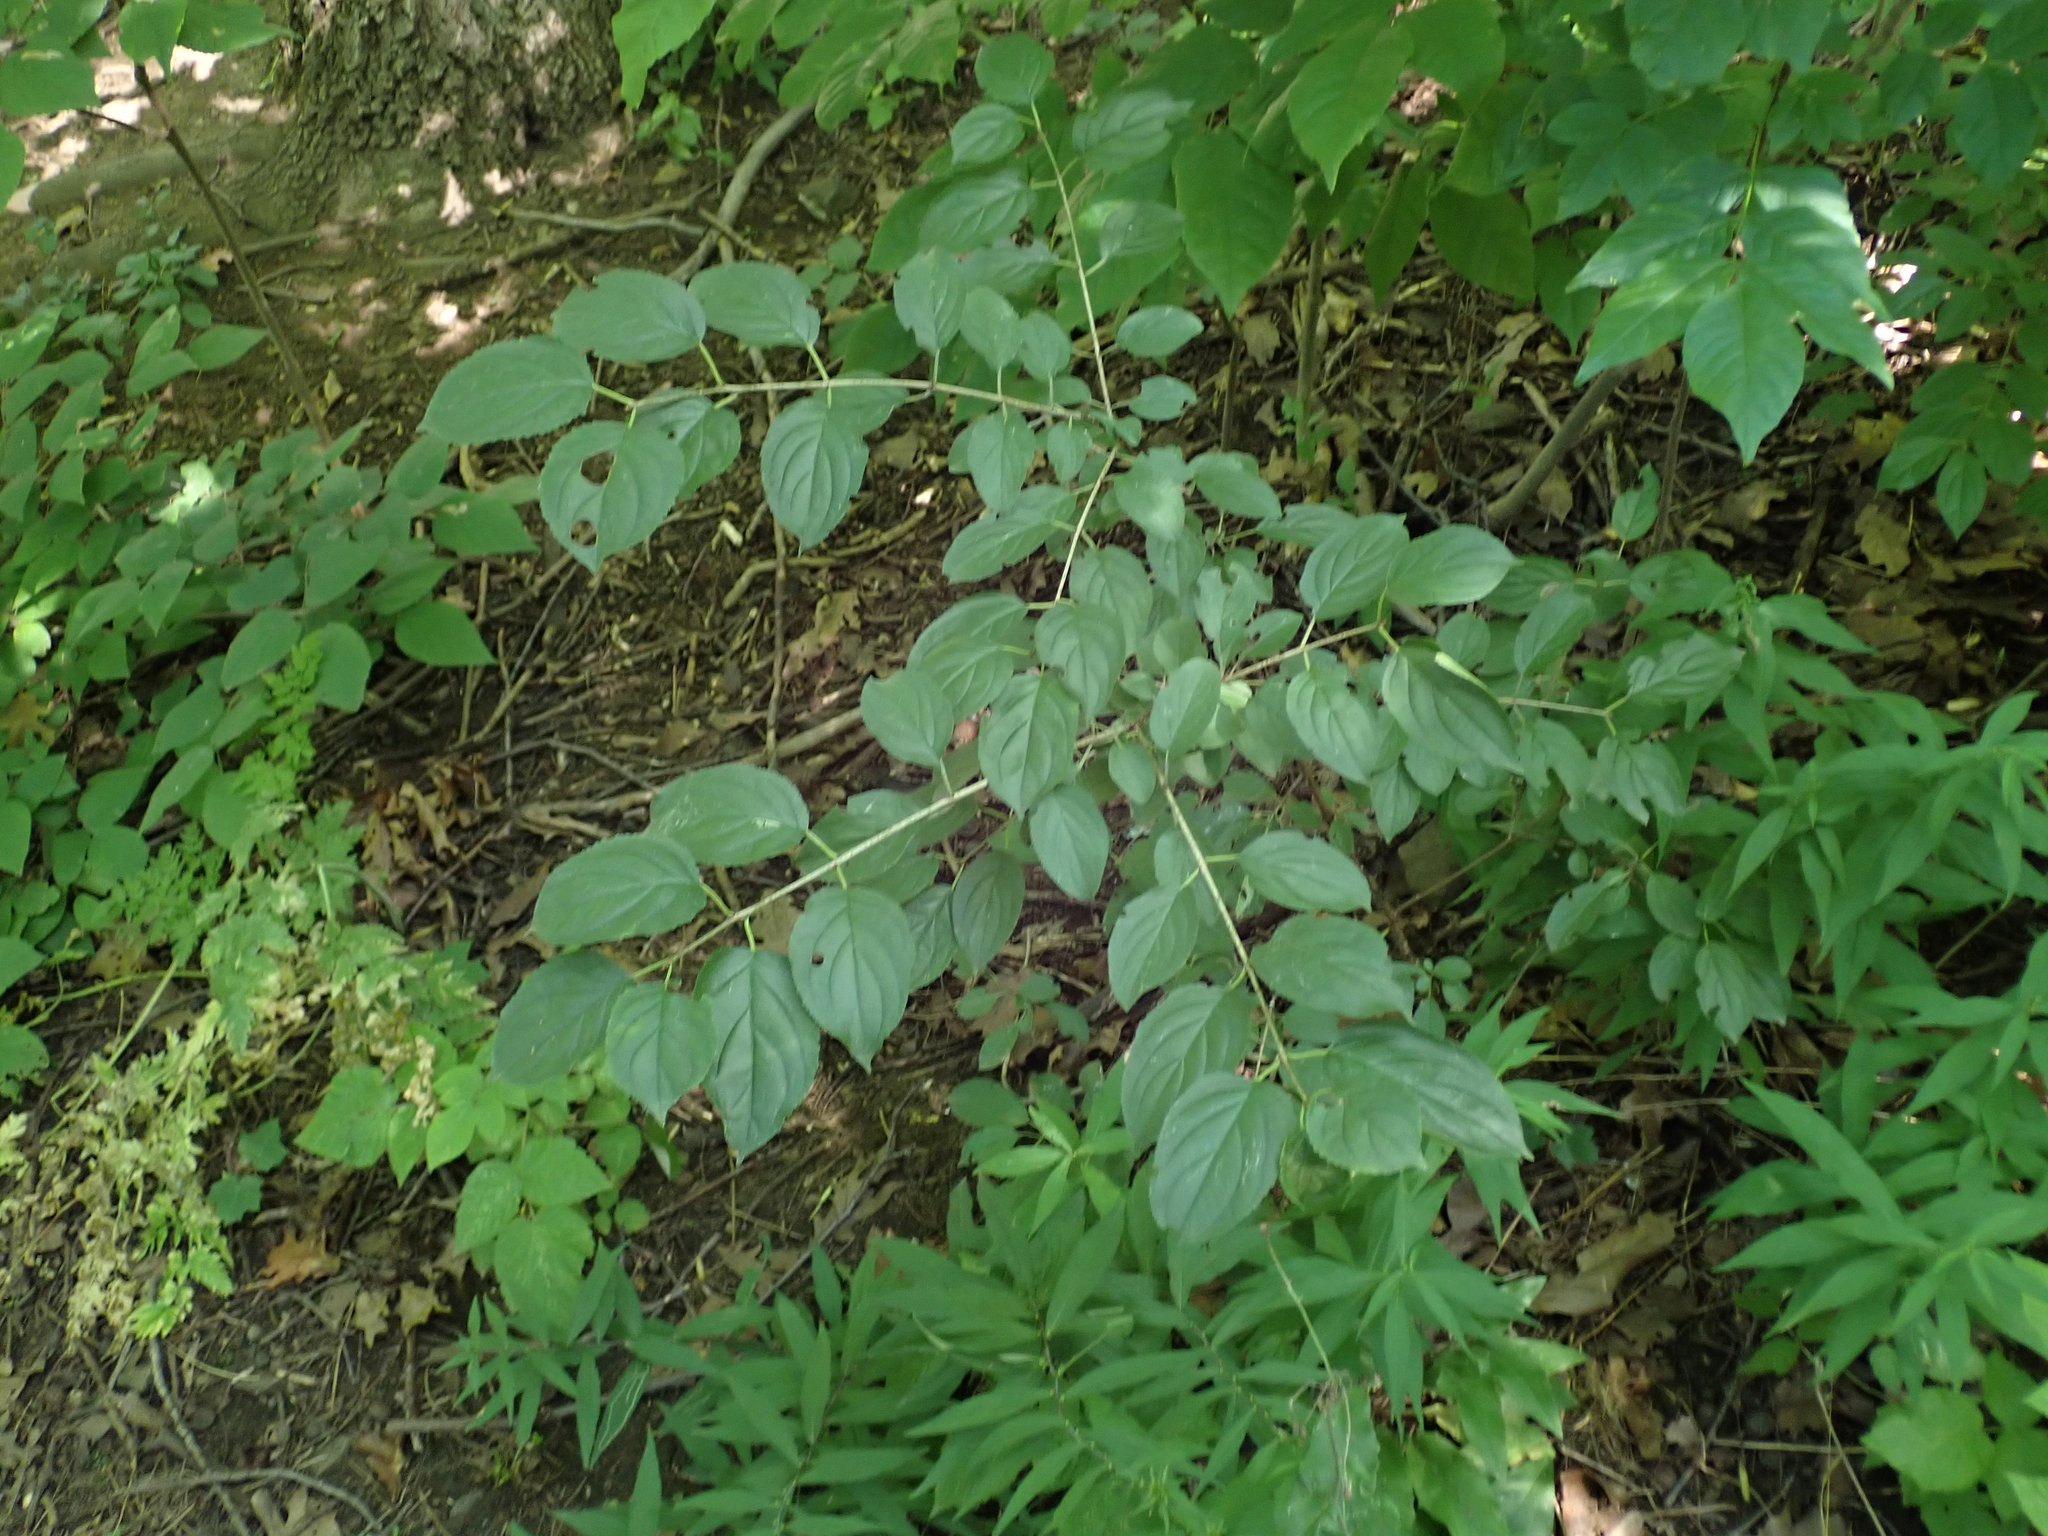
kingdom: Plantae
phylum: Tracheophyta
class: Magnoliopsida
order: Rosales
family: Rhamnaceae
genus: Rhamnus
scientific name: Rhamnus cathartica
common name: Common buckthorn
